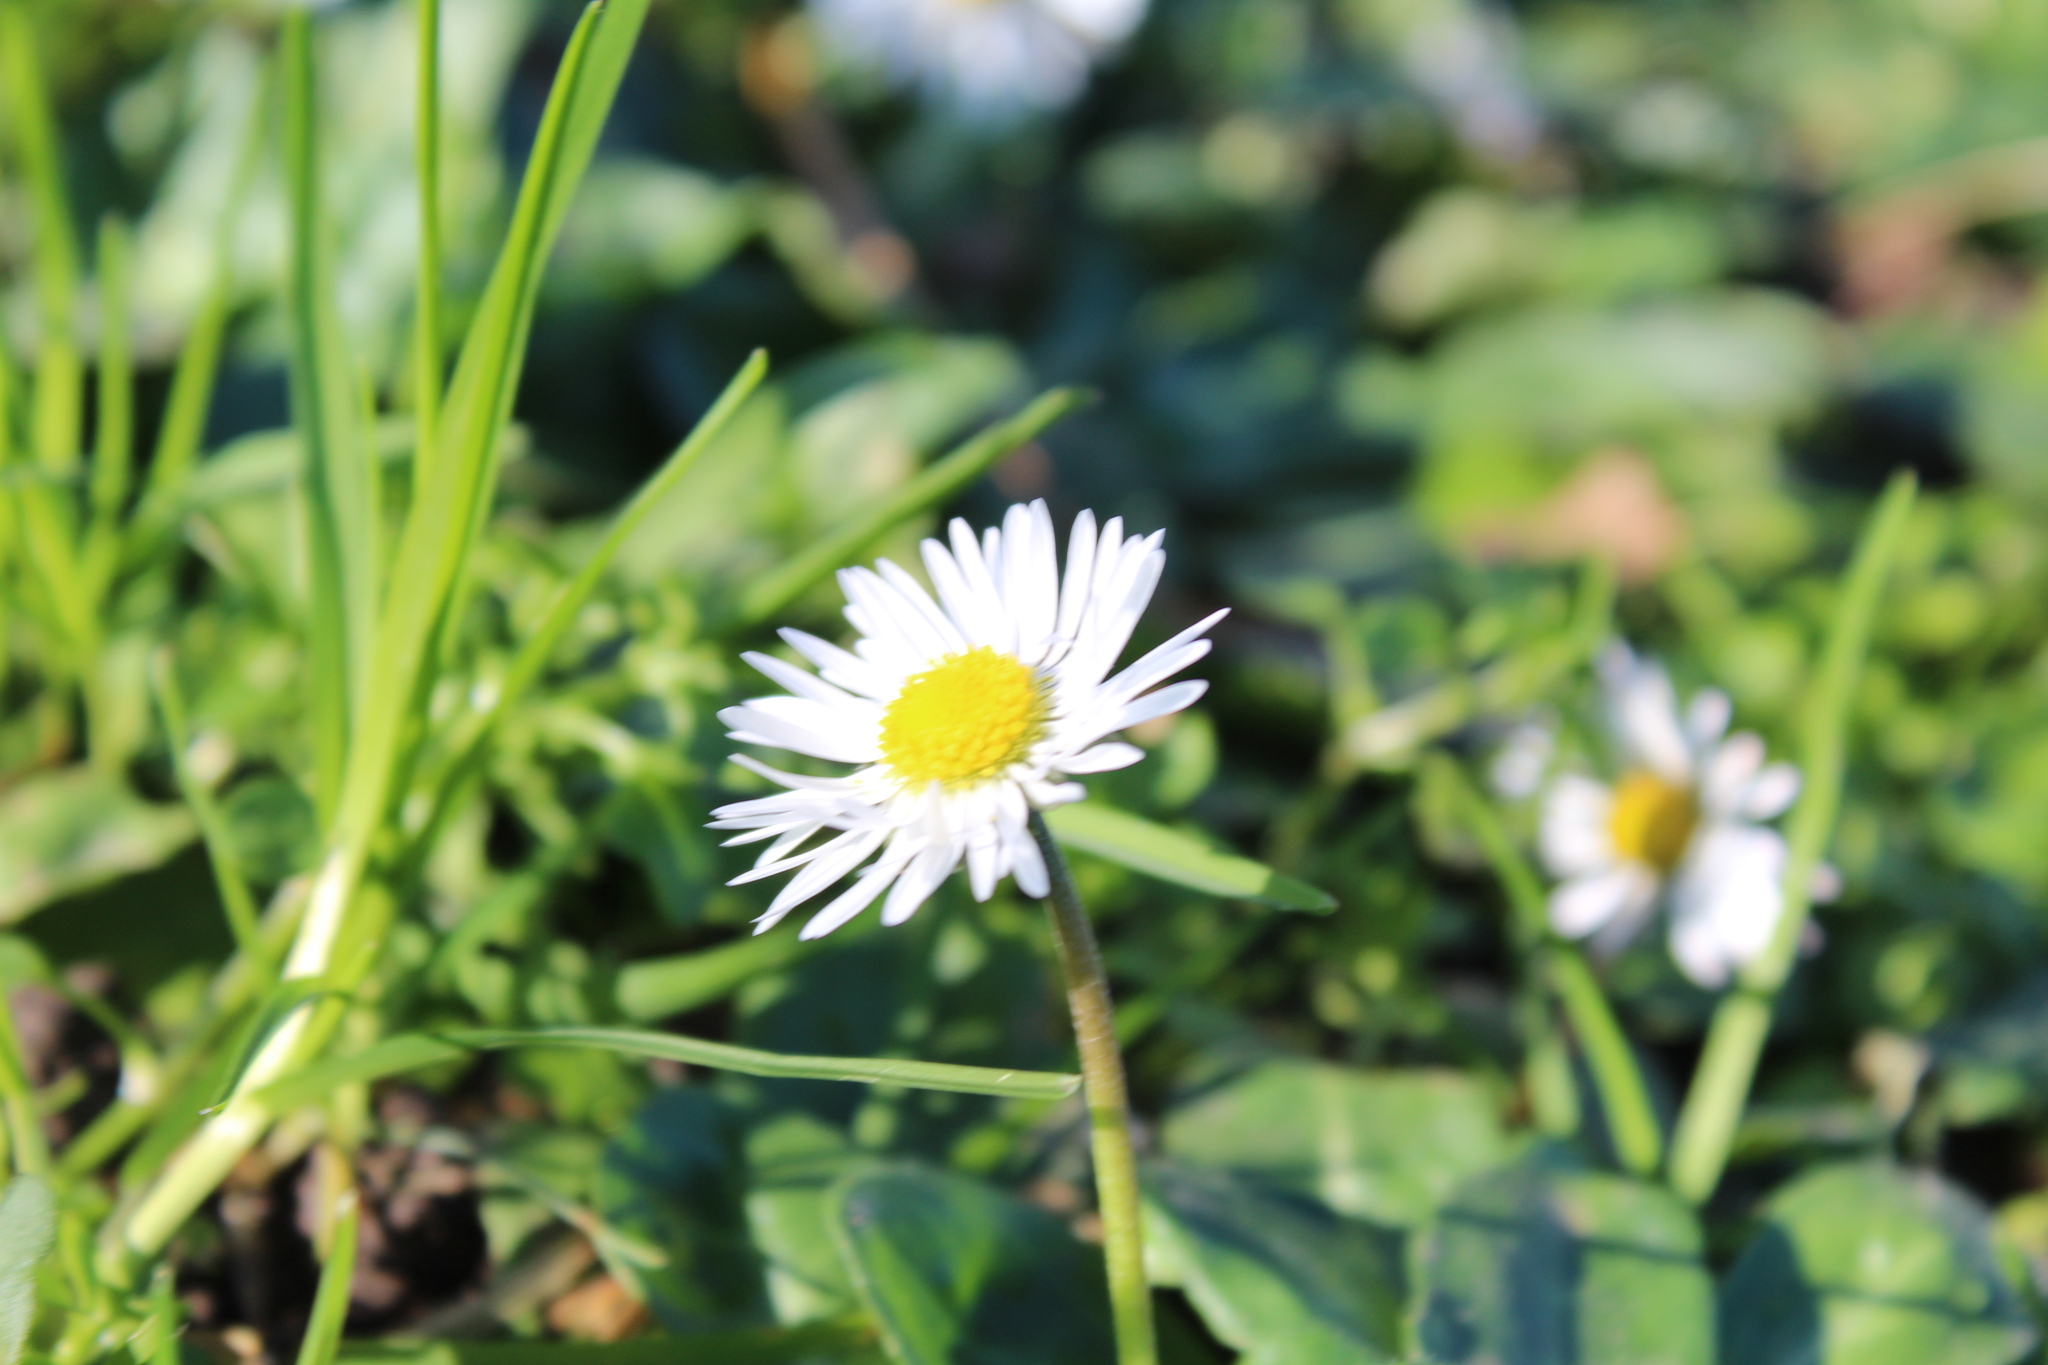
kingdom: Plantae
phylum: Tracheophyta
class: Magnoliopsida
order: Asterales
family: Asteraceae
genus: Bellis
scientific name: Bellis perennis
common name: Lawndaisy
